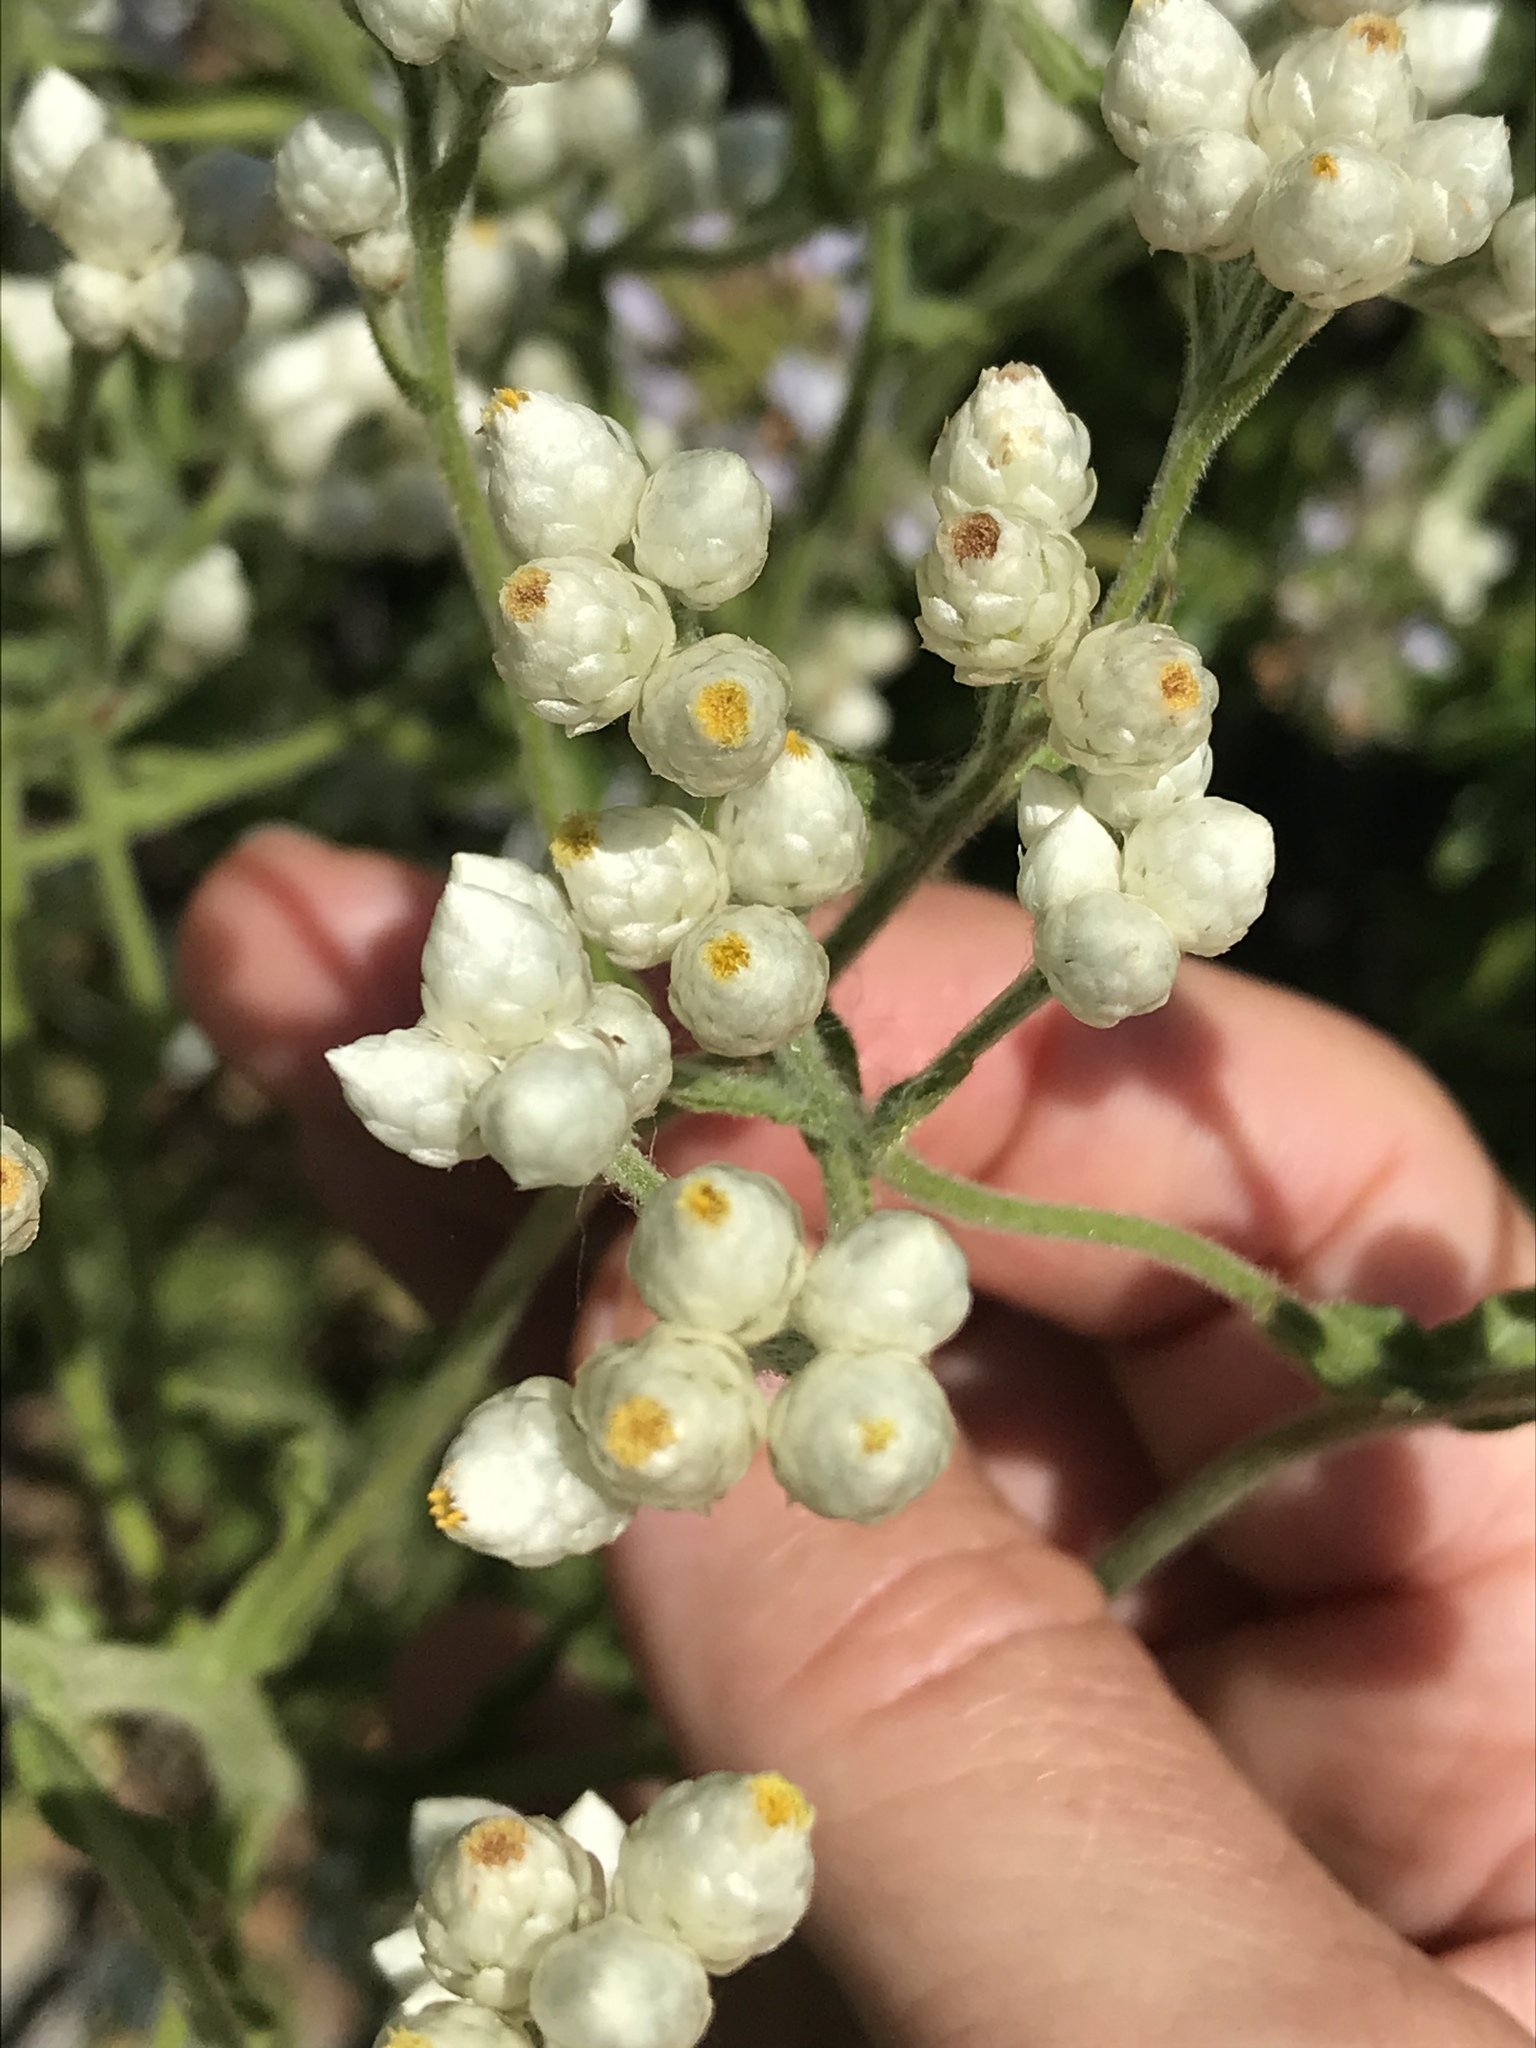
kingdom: Plantae
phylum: Tracheophyta
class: Magnoliopsida
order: Asterales
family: Asteraceae
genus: Pseudognaphalium
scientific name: Pseudognaphalium californicum
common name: California rabbit-tobacco
